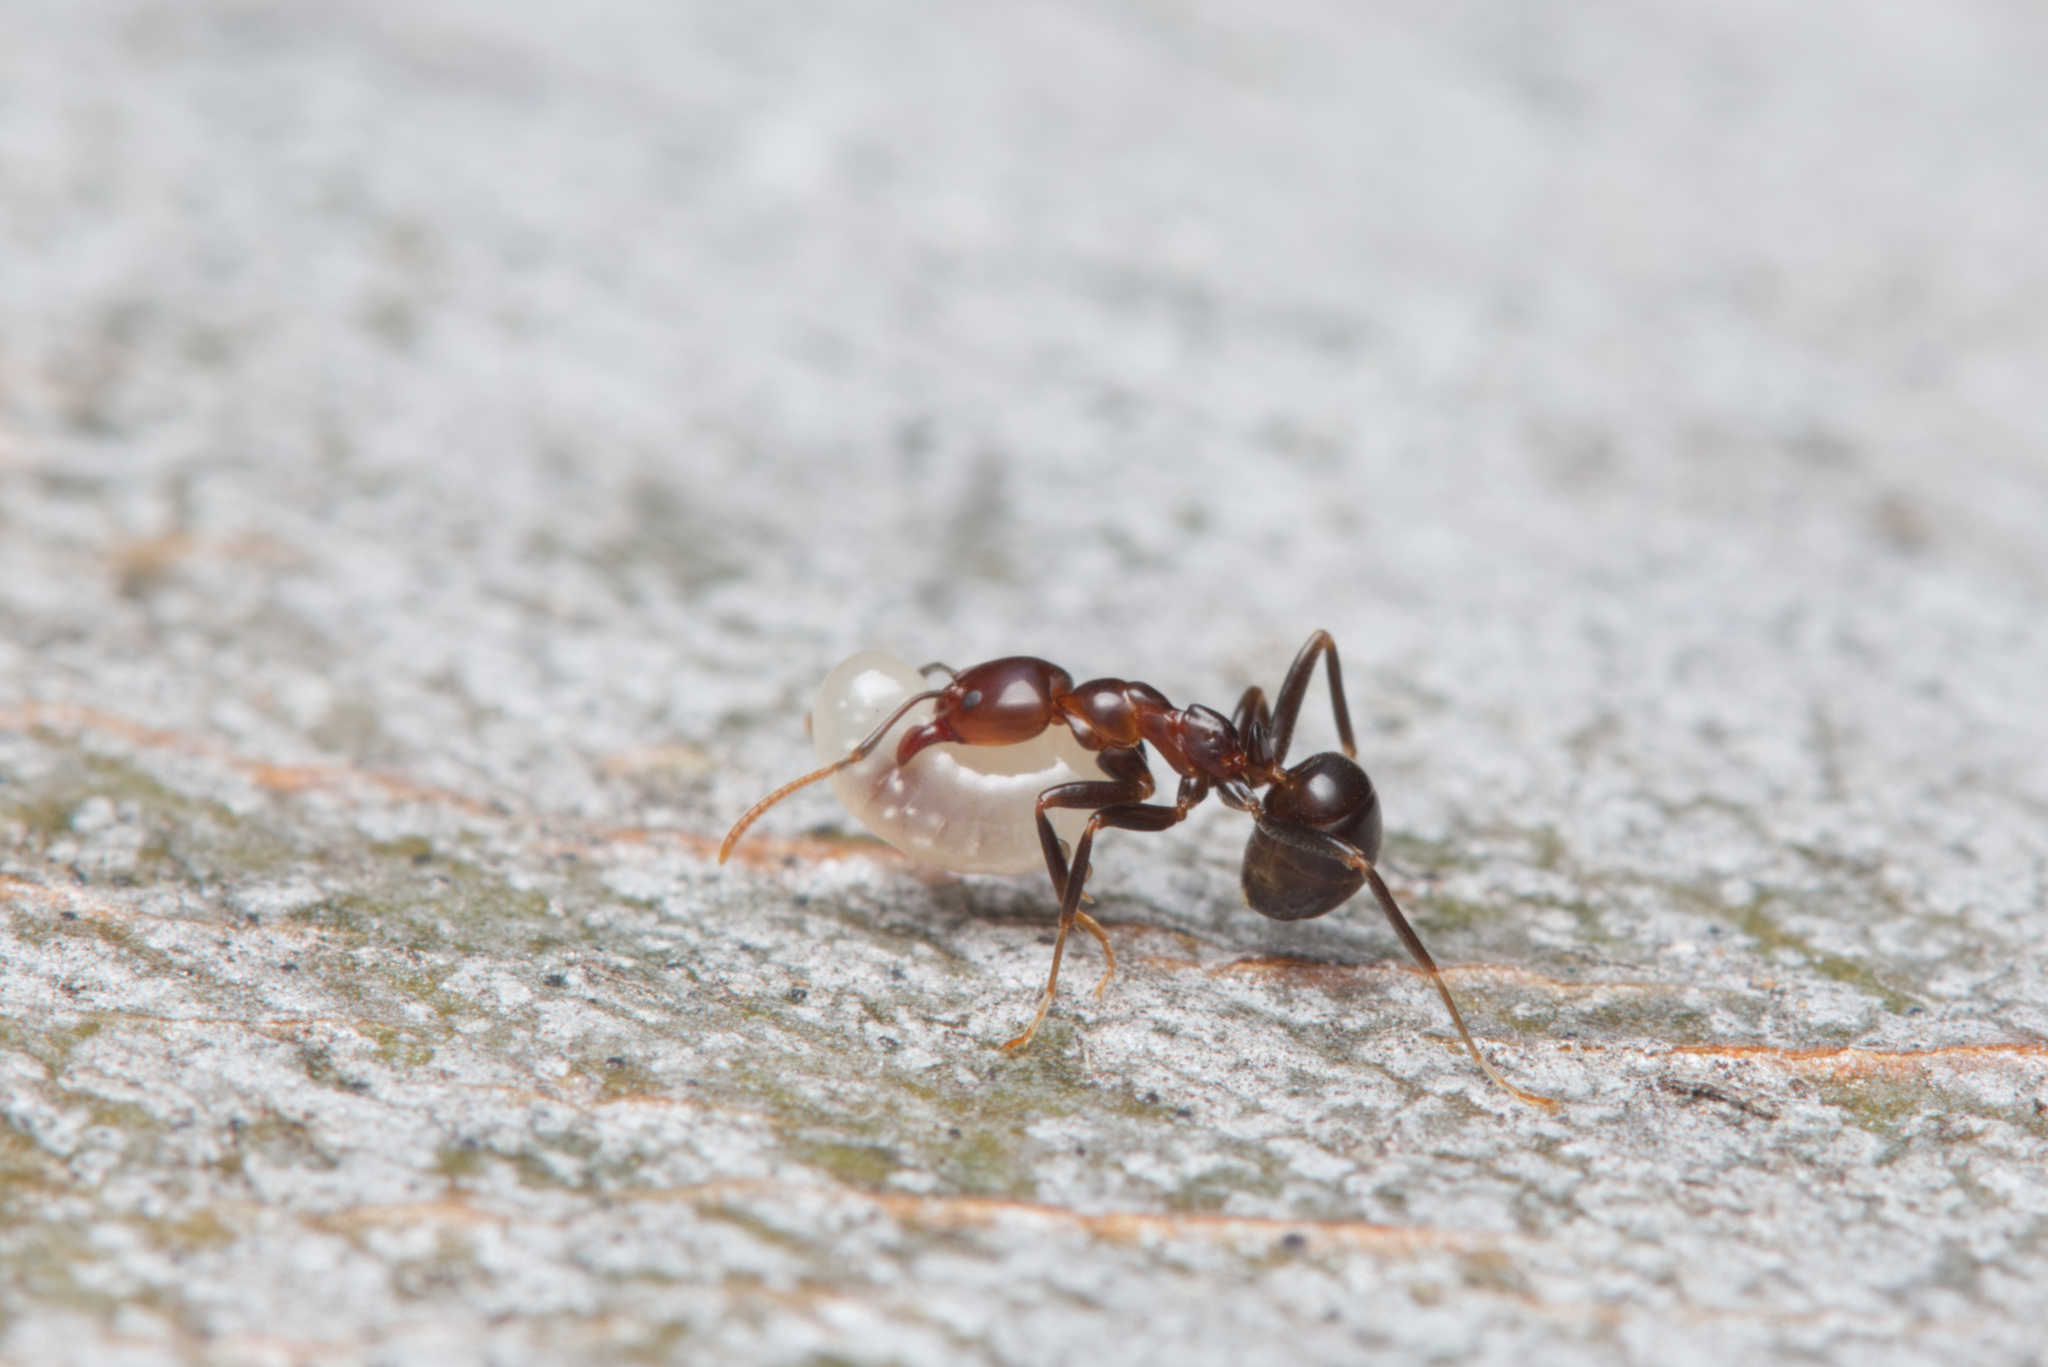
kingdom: Animalia
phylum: Arthropoda
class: Insecta
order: Hymenoptera
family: Formicidae
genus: Papyrius
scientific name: Papyrius nitidus
